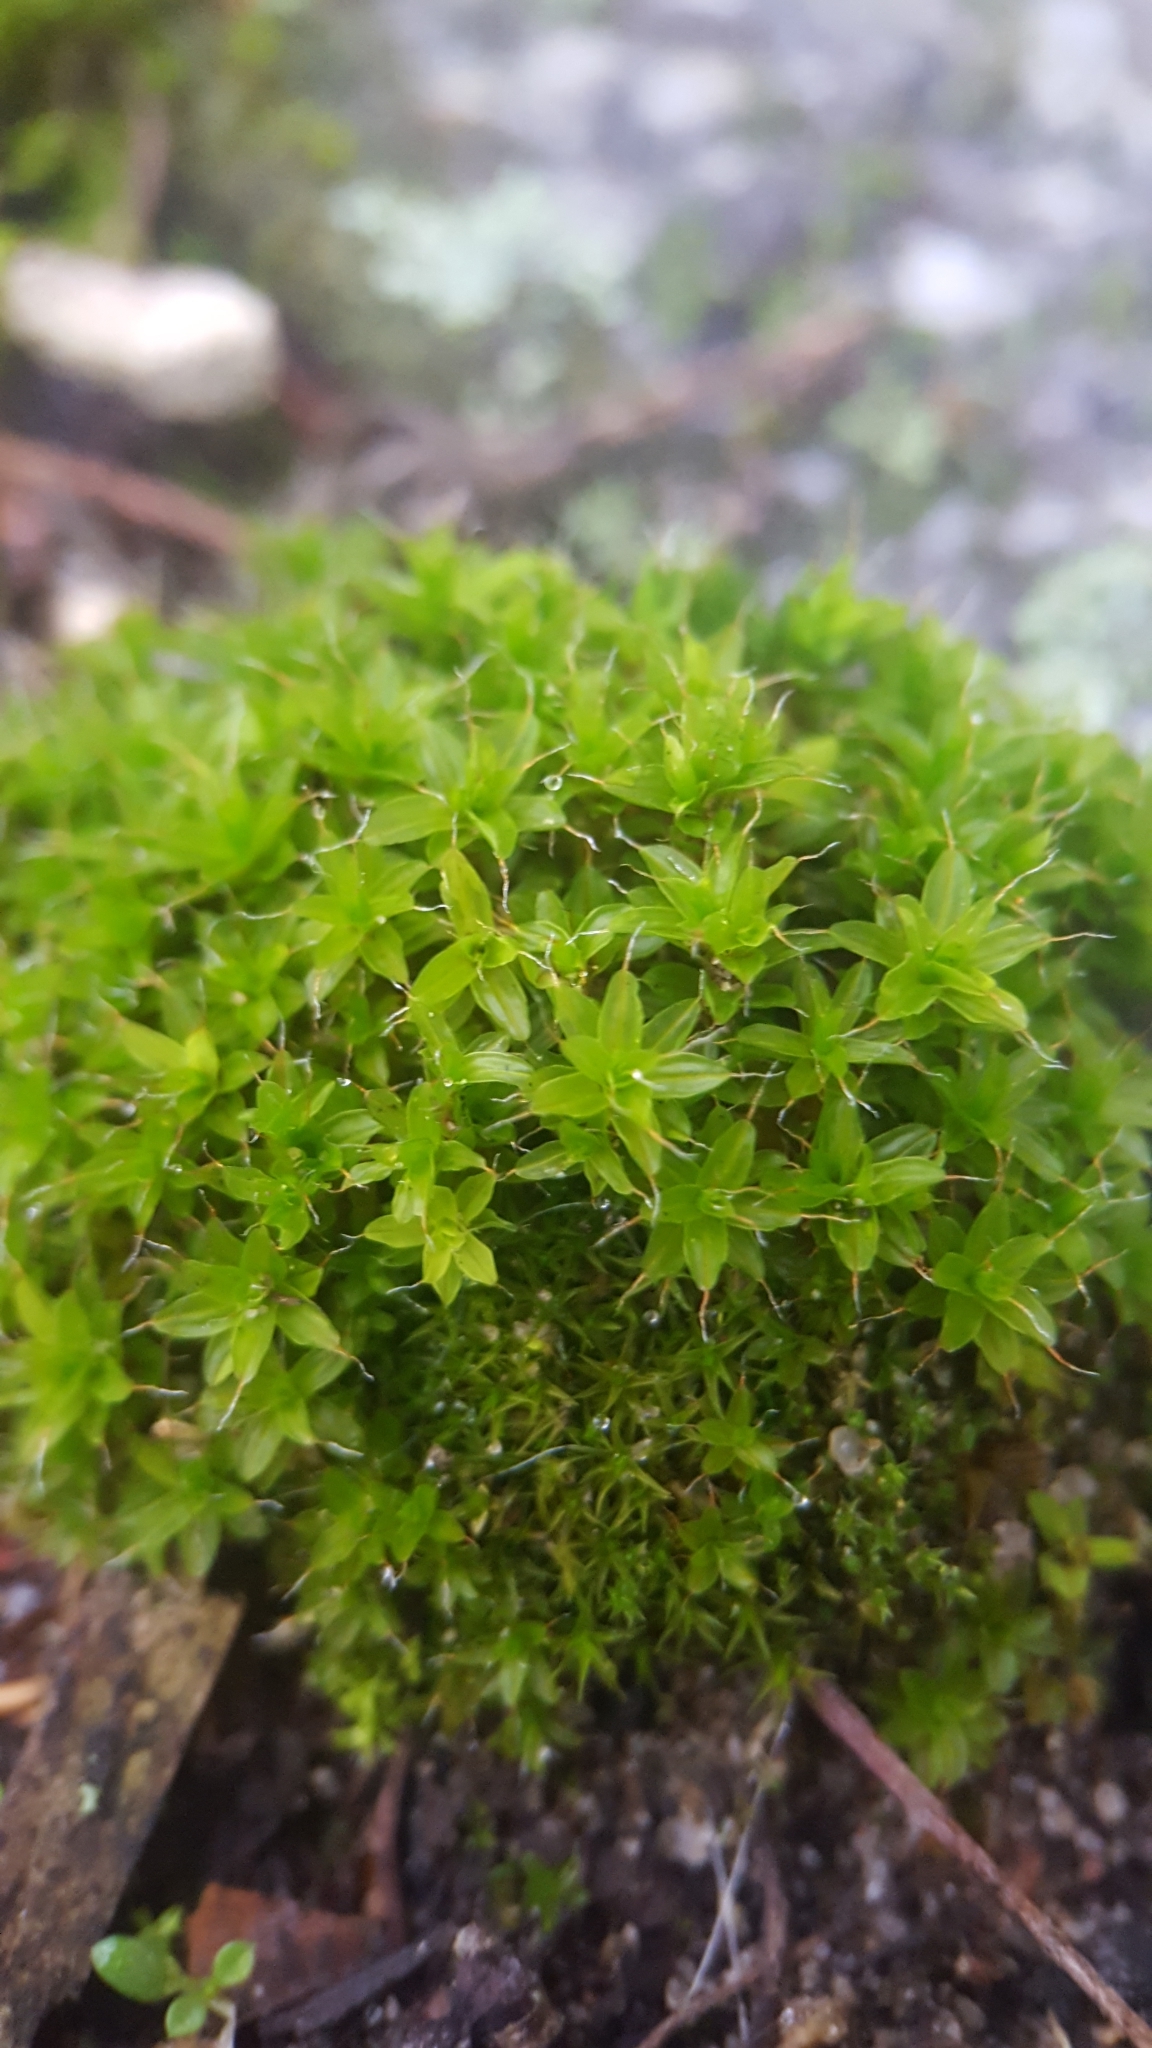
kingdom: Plantae
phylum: Bryophyta
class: Bryopsida
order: Pottiales
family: Pottiaceae
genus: Syntrichia
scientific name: Syntrichia ruralis
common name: Sidewalk screw moss
